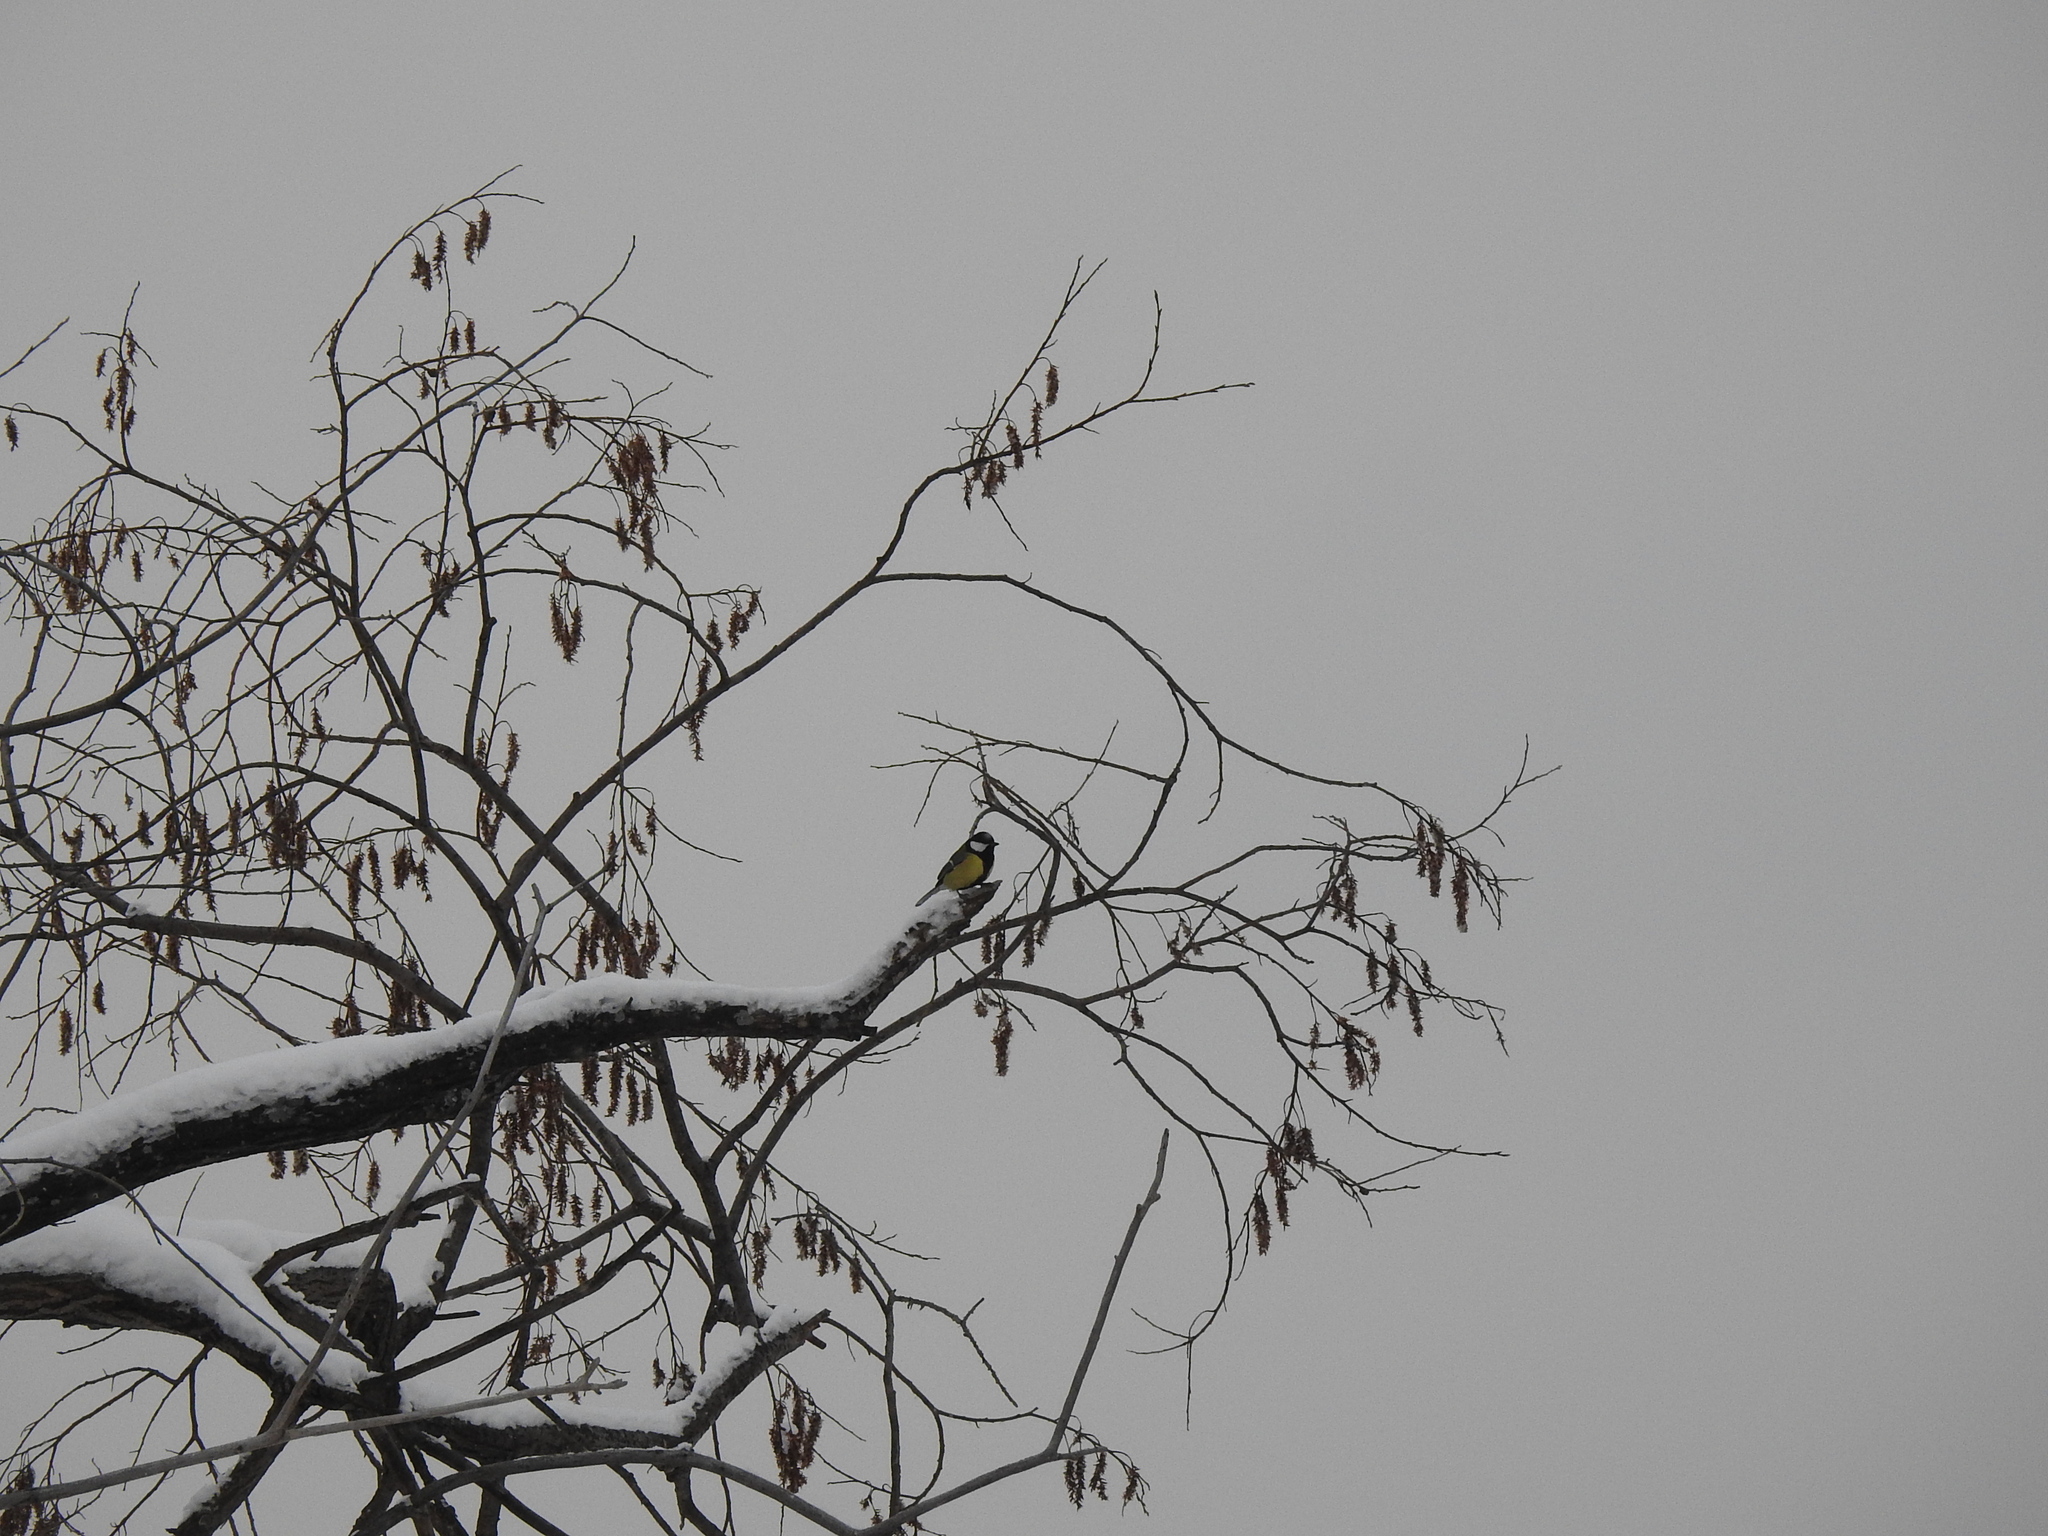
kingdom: Animalia
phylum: Chordata
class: Aves
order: Passeriformes
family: Paridae
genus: Parus
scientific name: Parus major
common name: Great tit
